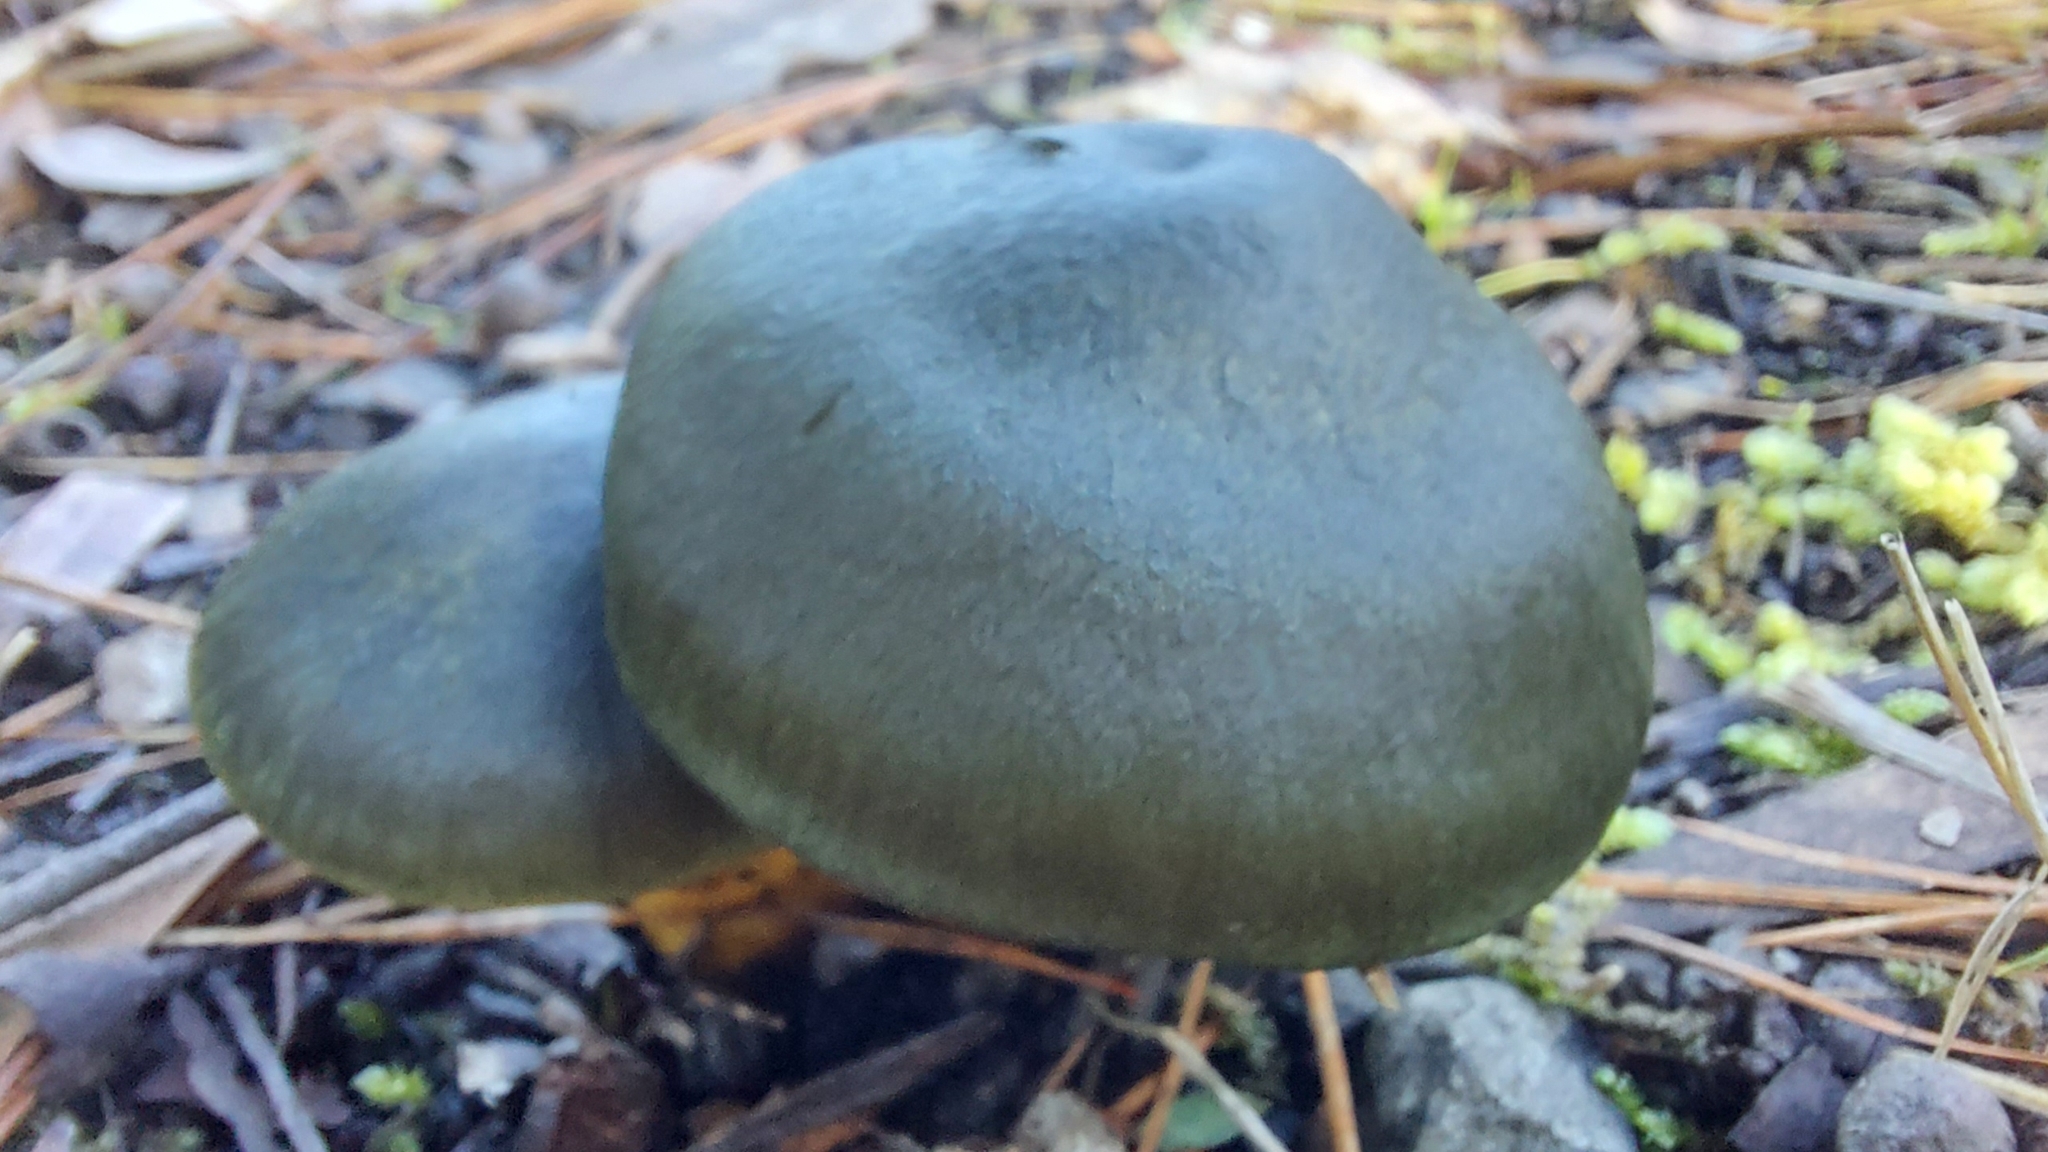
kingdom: Fungi
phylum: Basidiomycota
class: Agaricomycetes
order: Agaricales
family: Cortinariaceae
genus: Cortinarius
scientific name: Cortinarius austrovenetus
